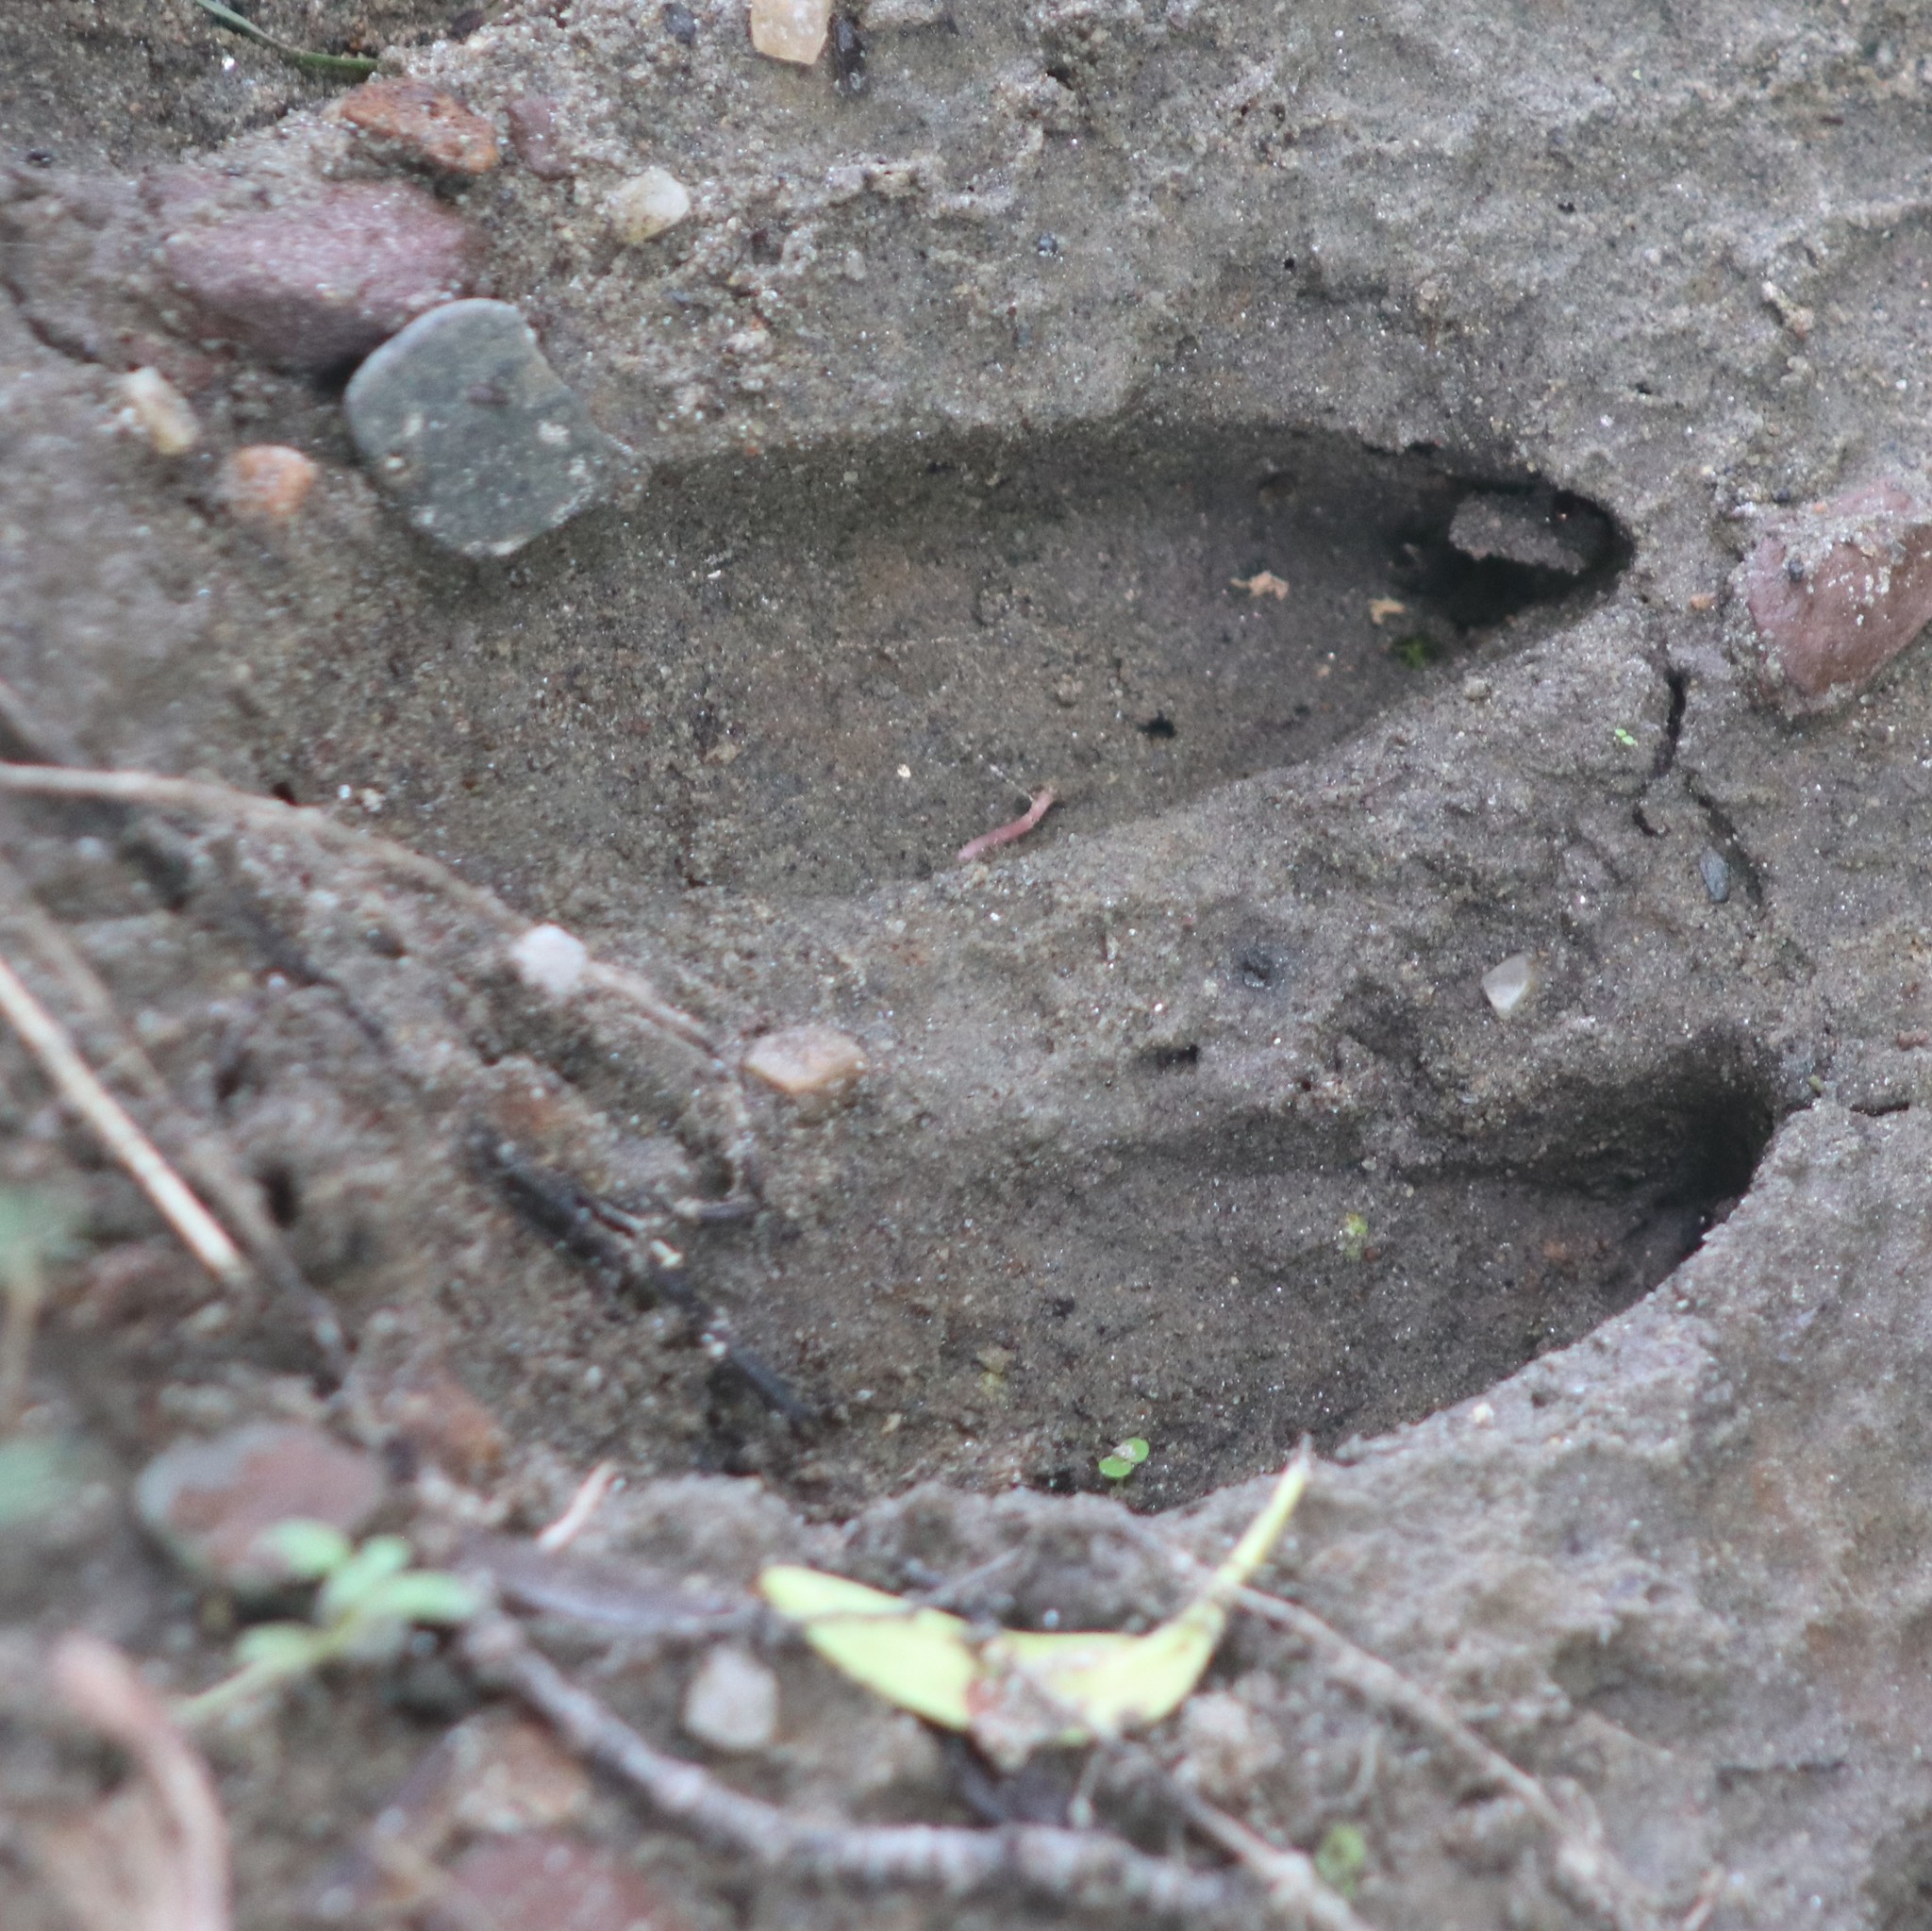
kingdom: Animalia
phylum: Chordata
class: Mammalia
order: Artiodactyla
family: Cervidae
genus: Odocoileus
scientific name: Odocoileus virginianus
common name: White-tailed deer
